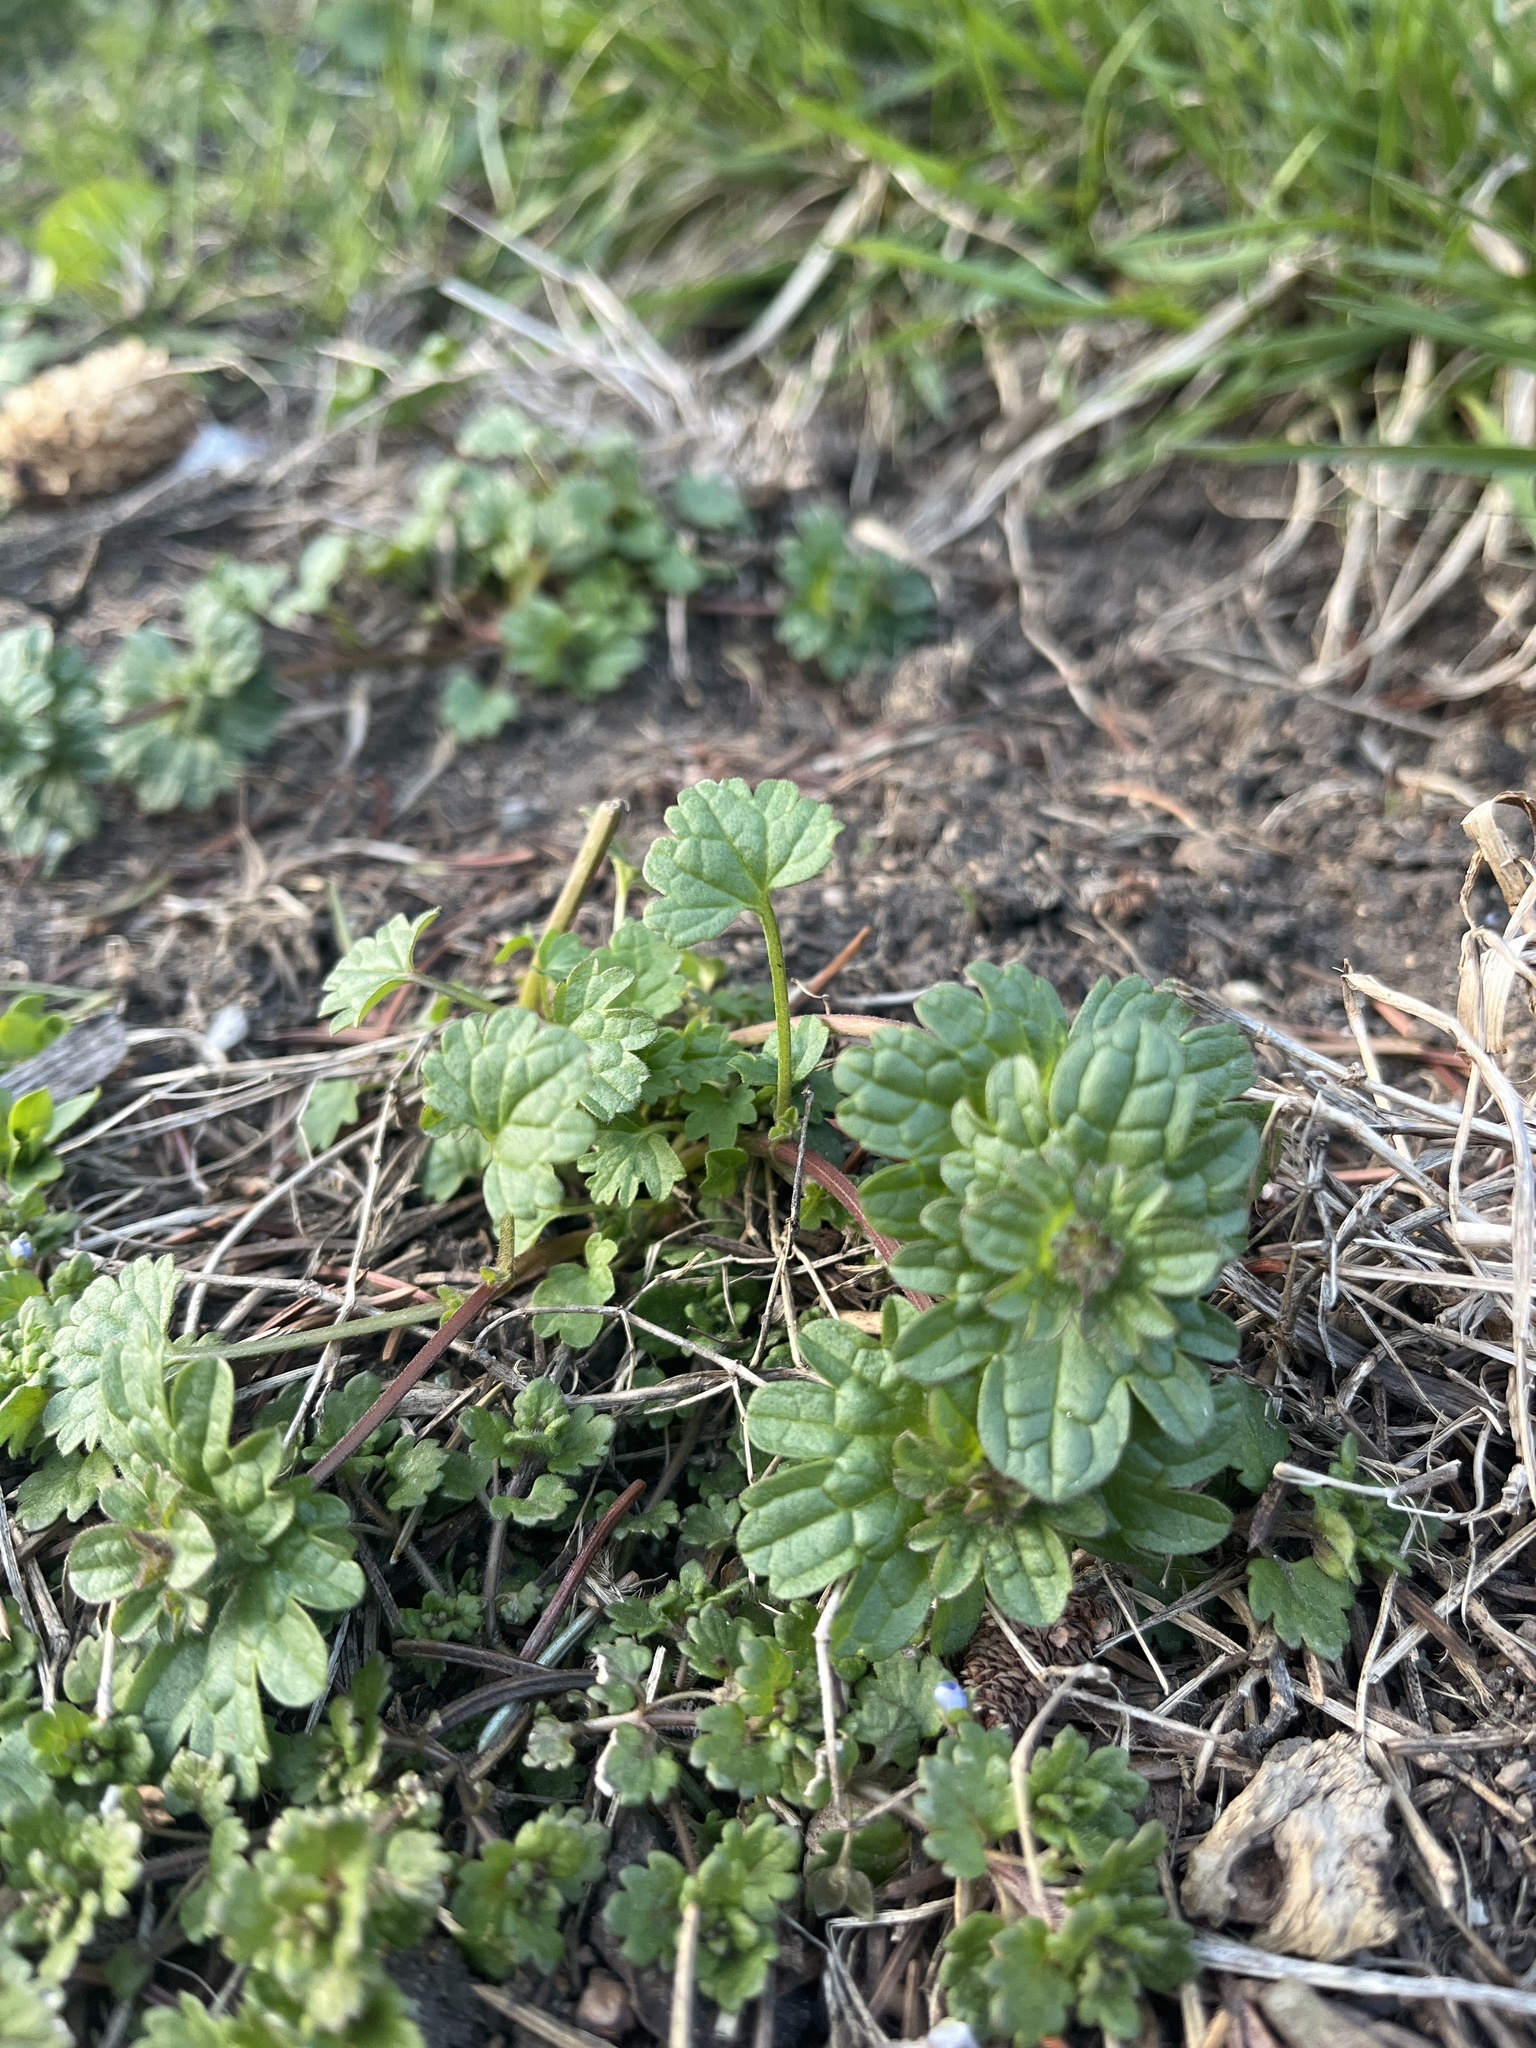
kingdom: Plantae
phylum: Tracheophyta
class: Magnoliopsida
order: Lamiales
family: Lamiaceae
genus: Lamium
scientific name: Lamium amplexicaule
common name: Henbit dead-nettle
